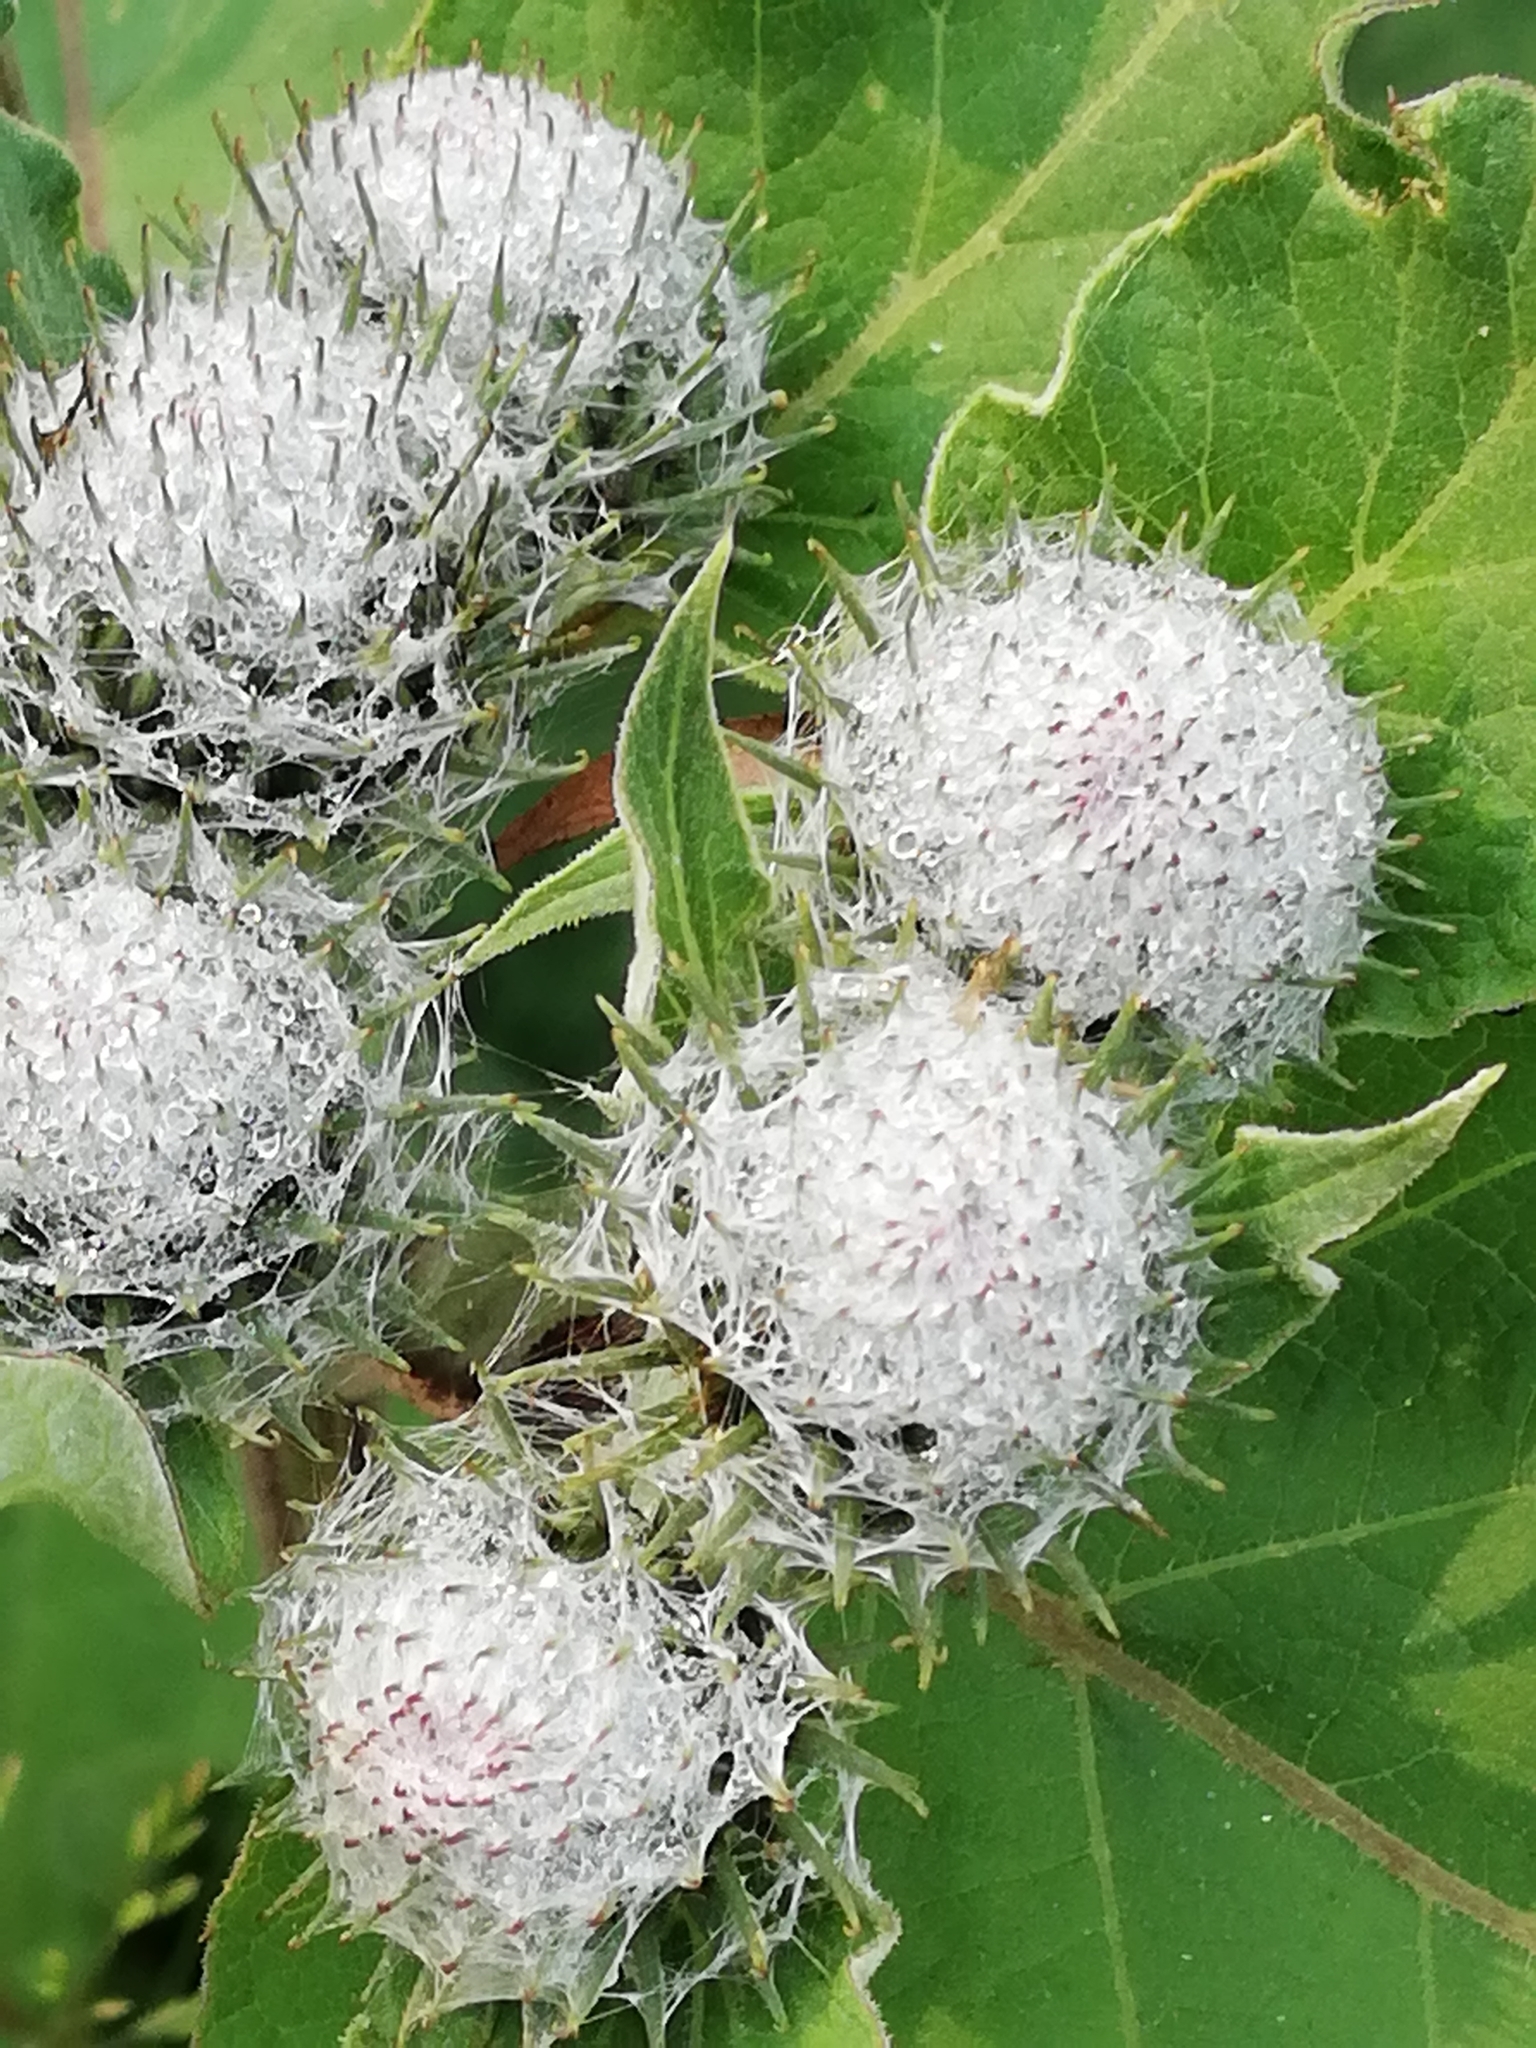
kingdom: Plantae
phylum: Tracheophyta
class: Magnoliopsida
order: Asterales
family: Asteraceae
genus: Arctium
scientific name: Arctium tomentosum
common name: Woolly burdock
